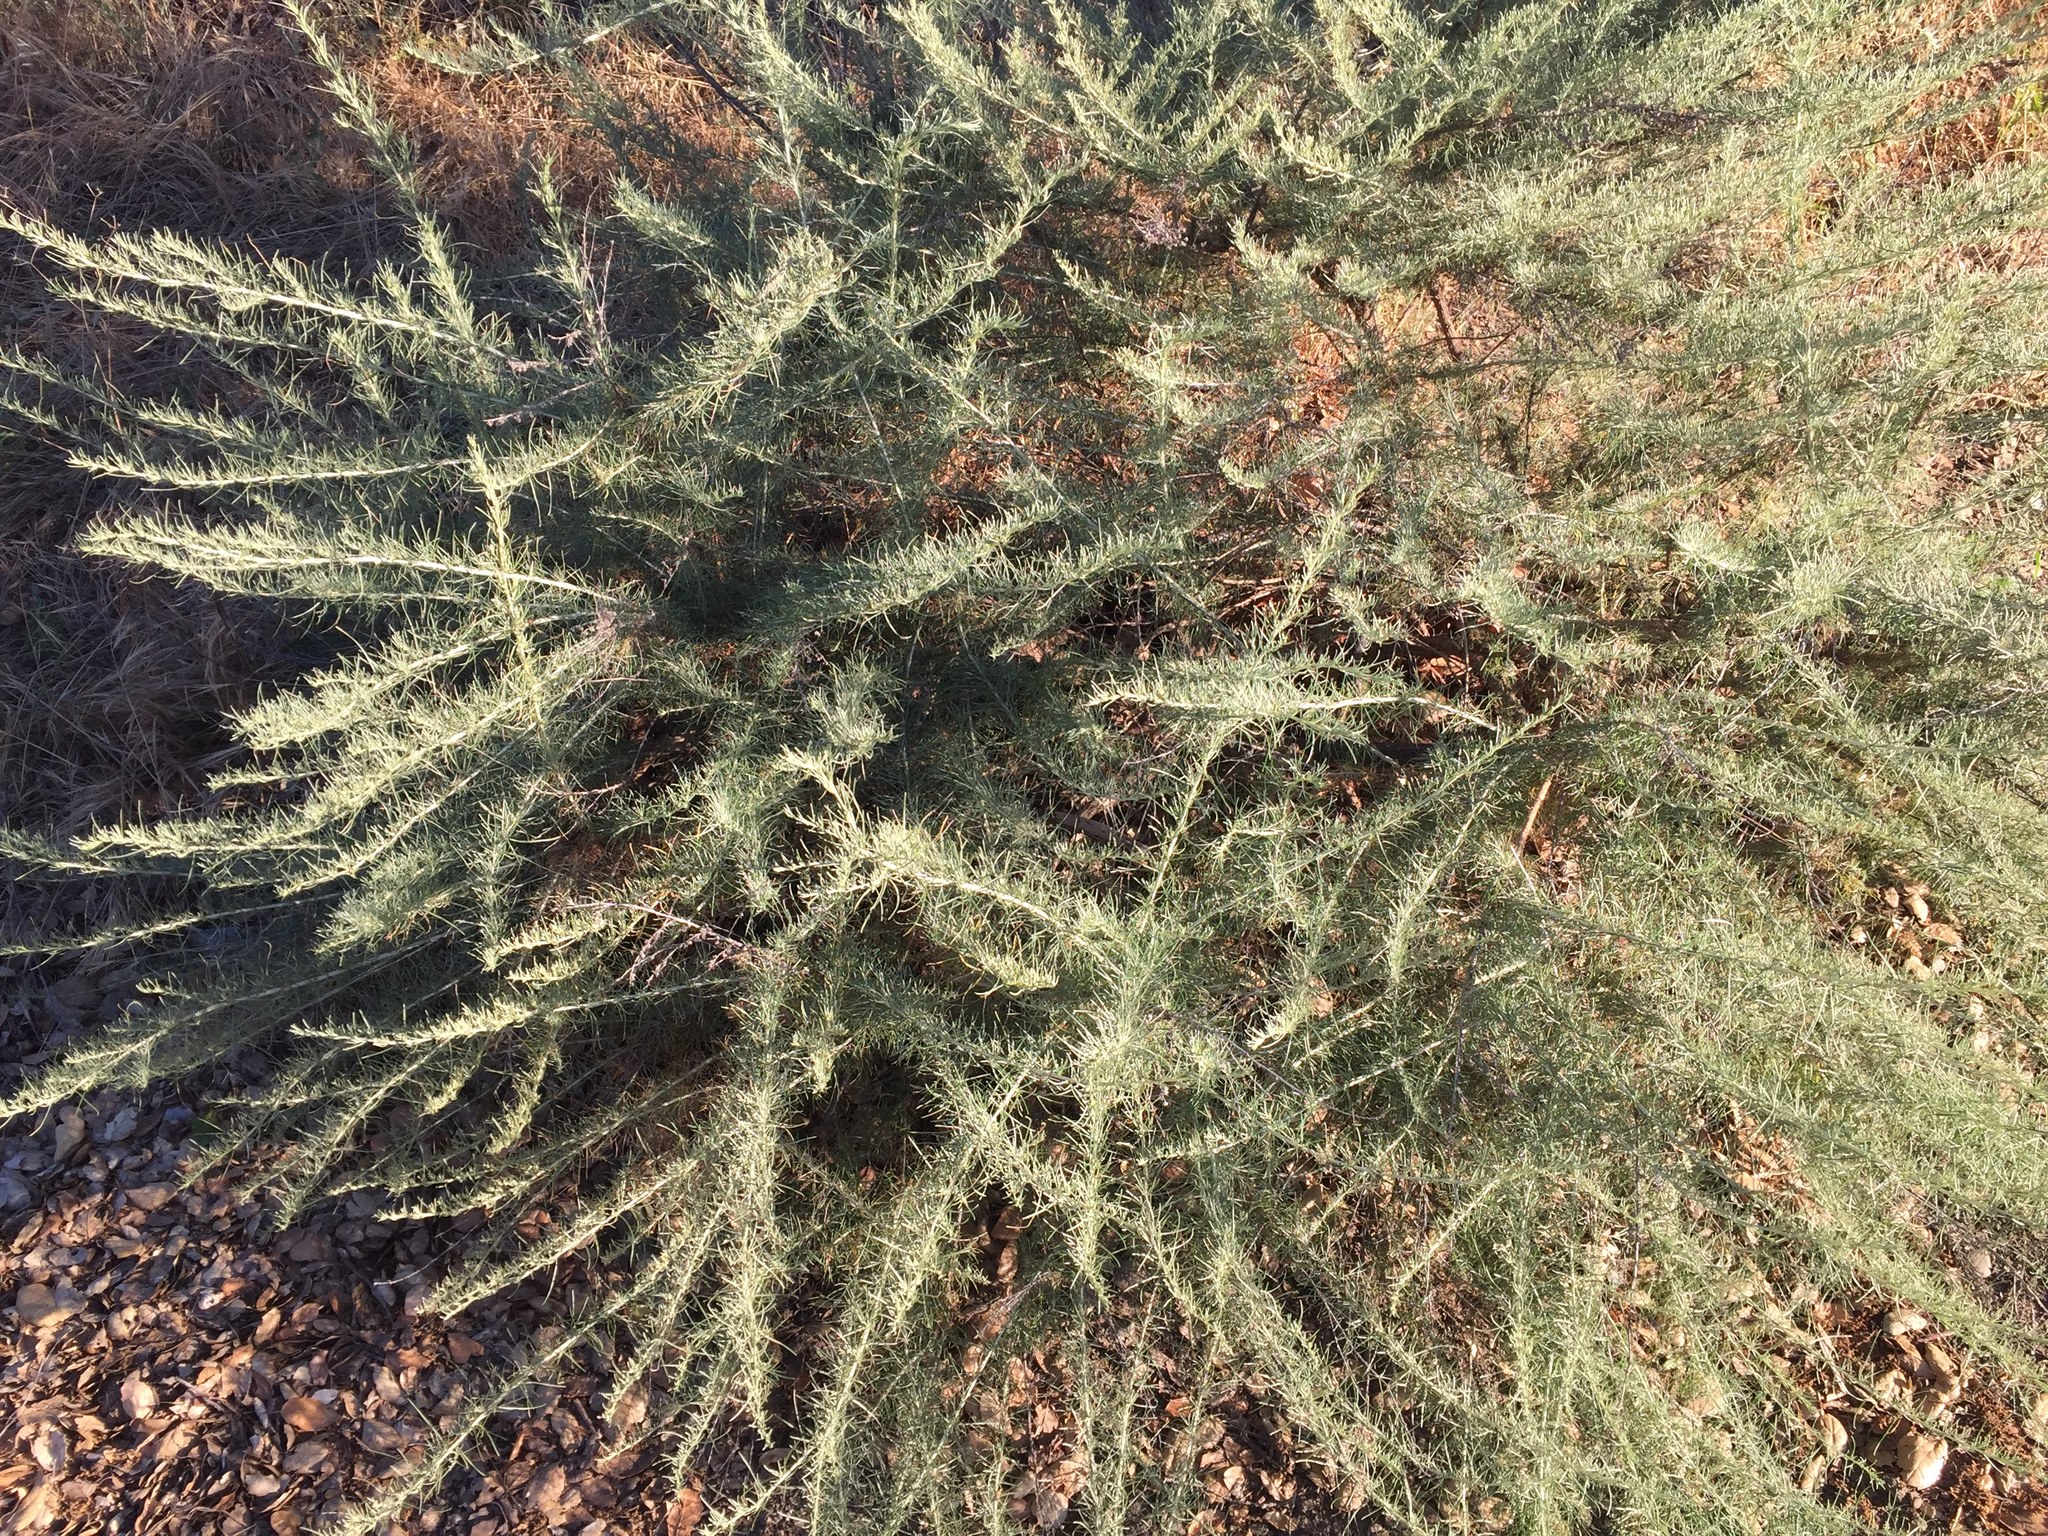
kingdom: Plantae
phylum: Tracheophyta
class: Magnoliopsida
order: Asterales
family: Asteraceae
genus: Artemisia
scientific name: Artemisia californica
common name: California sagebrush
